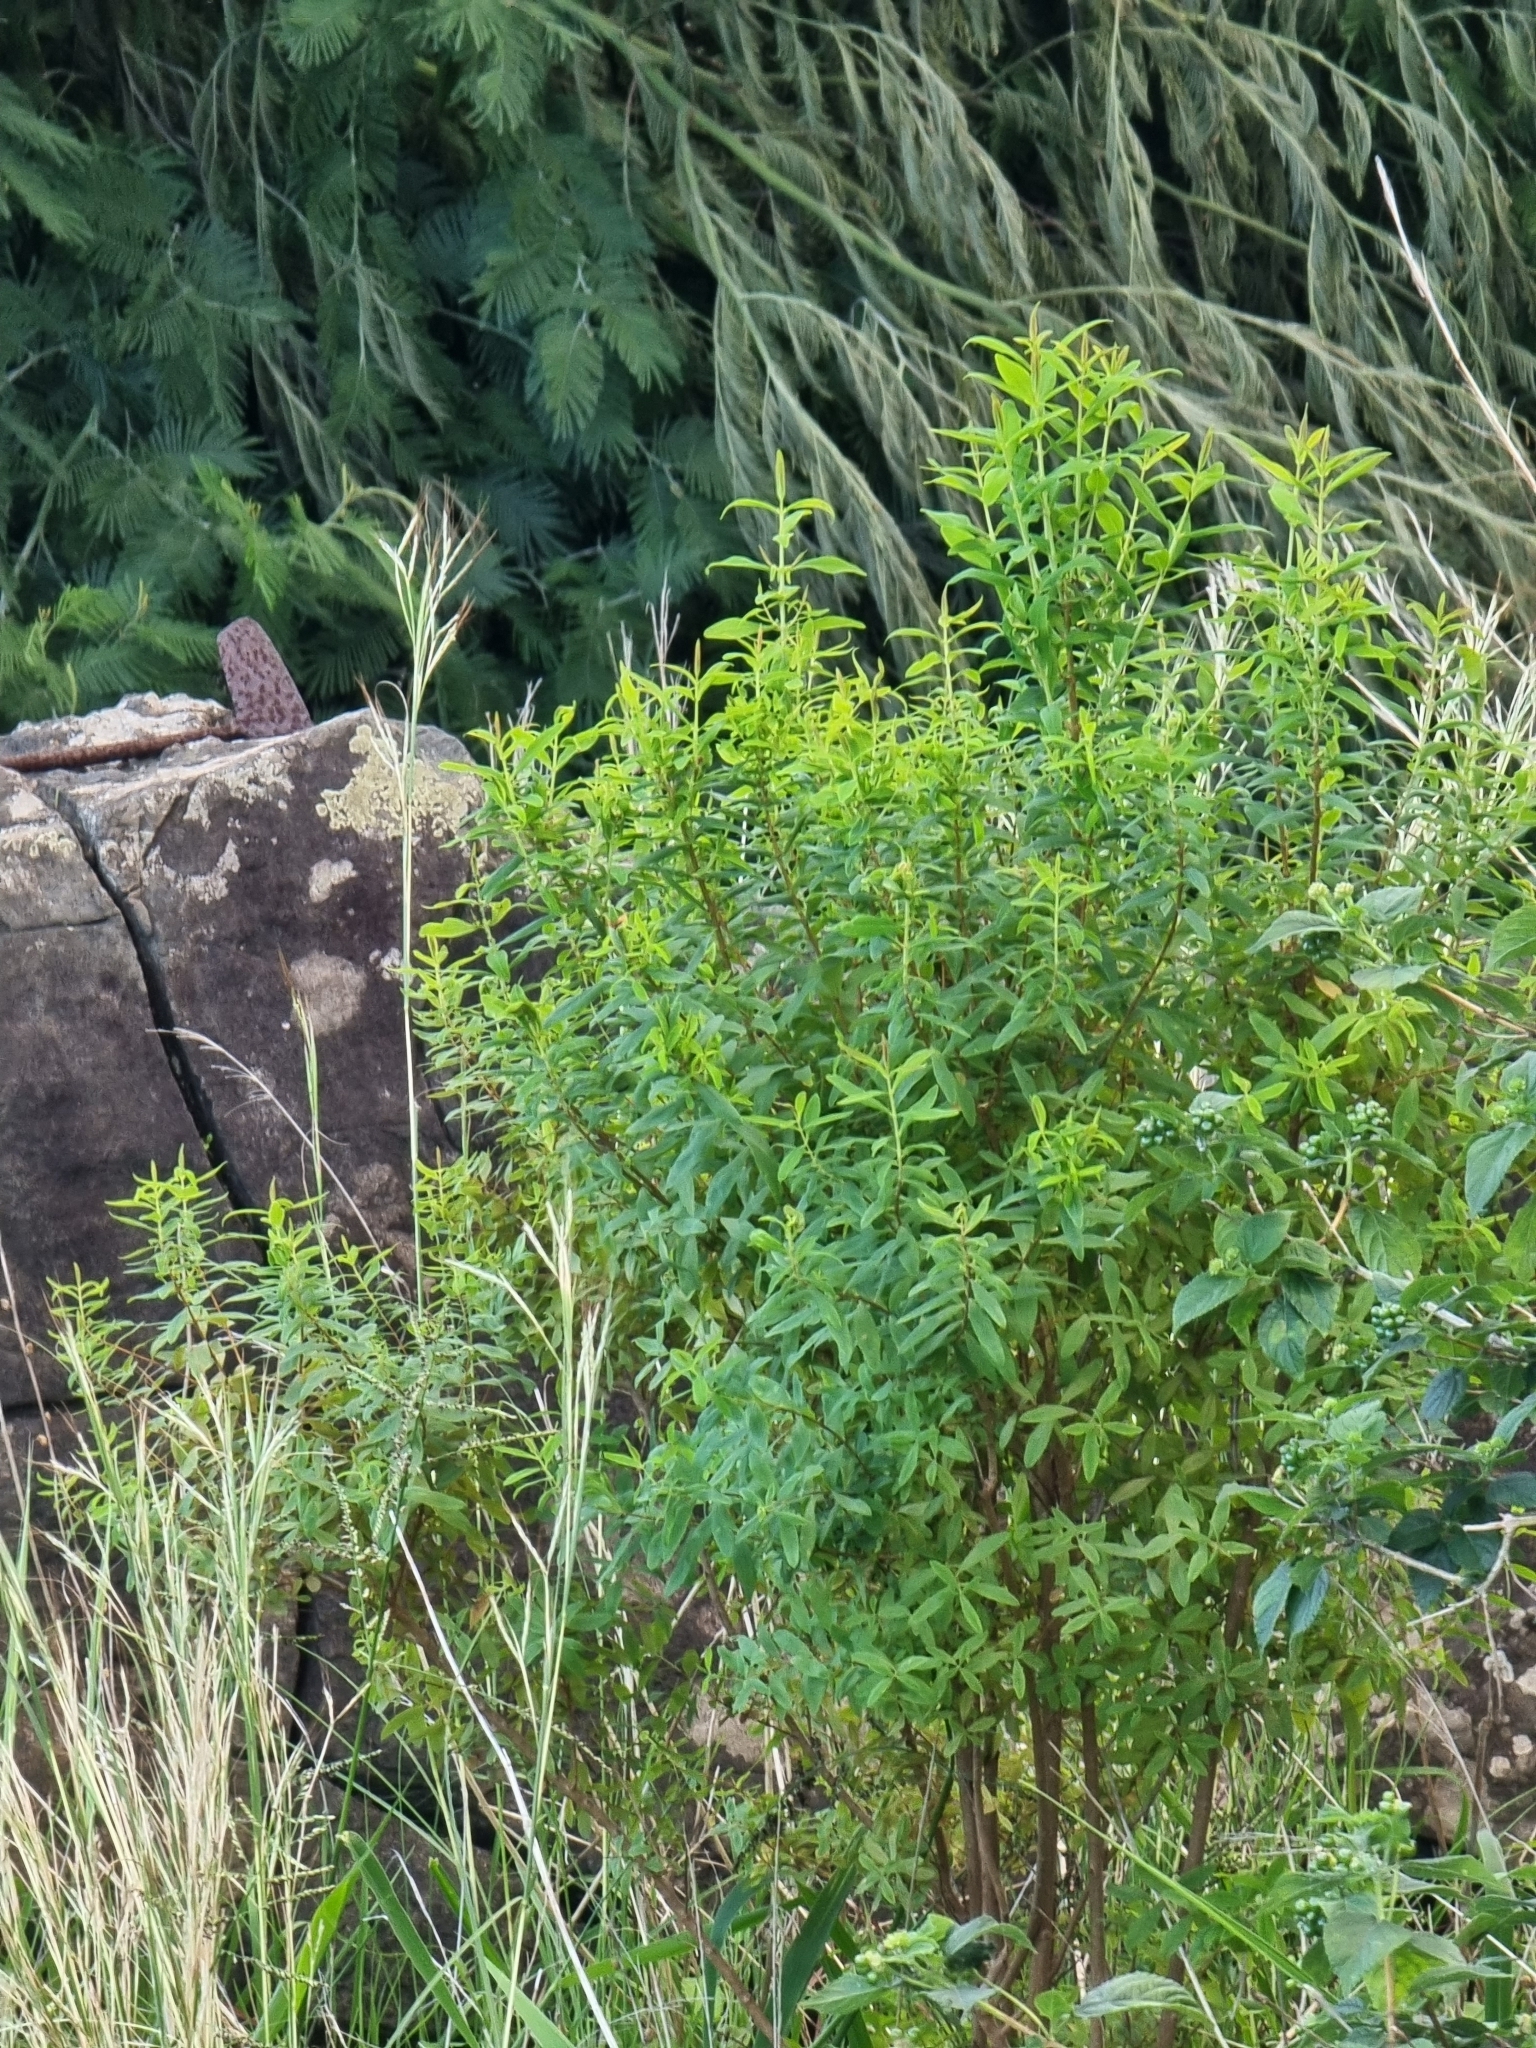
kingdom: Plantae
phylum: Tracheophyta
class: Magnoliopsida
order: Malpighiales
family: Hypericaceae
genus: Hypericum
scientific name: Hypericum canariense
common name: Canary island st. johnswort
